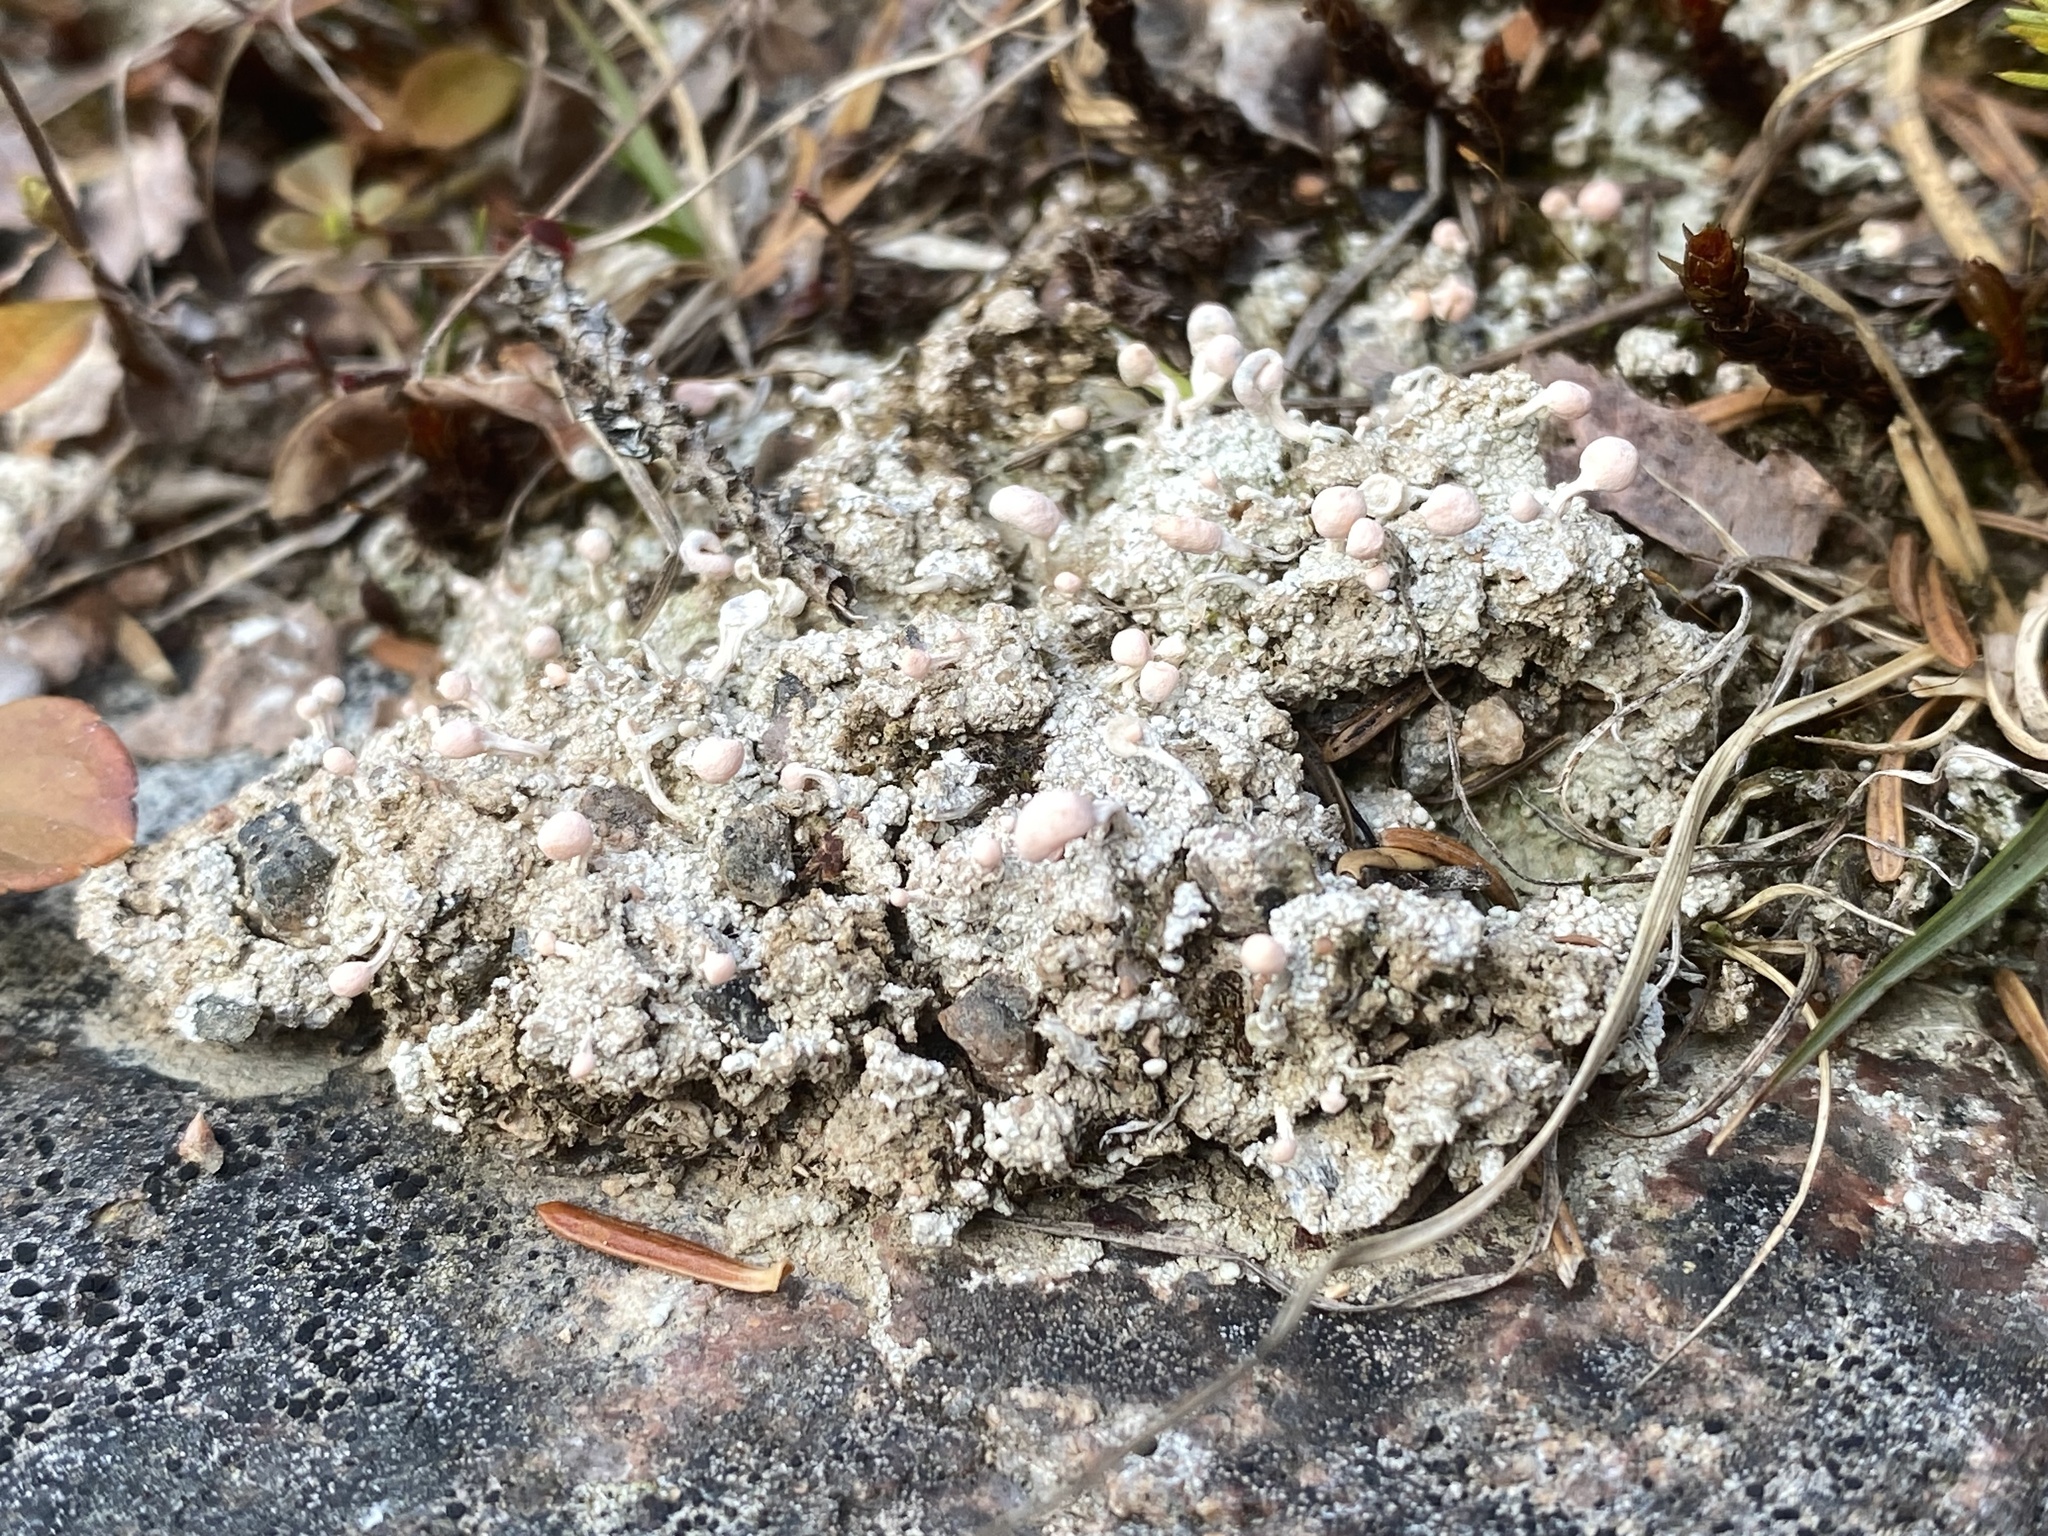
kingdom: Fungi
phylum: Ascomycota
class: Lecanoromycetes
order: Pertusariales
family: Icmadophilaceae
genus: Dibaeis
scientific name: Dibaeis baeomyces
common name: Pink earth lichen
